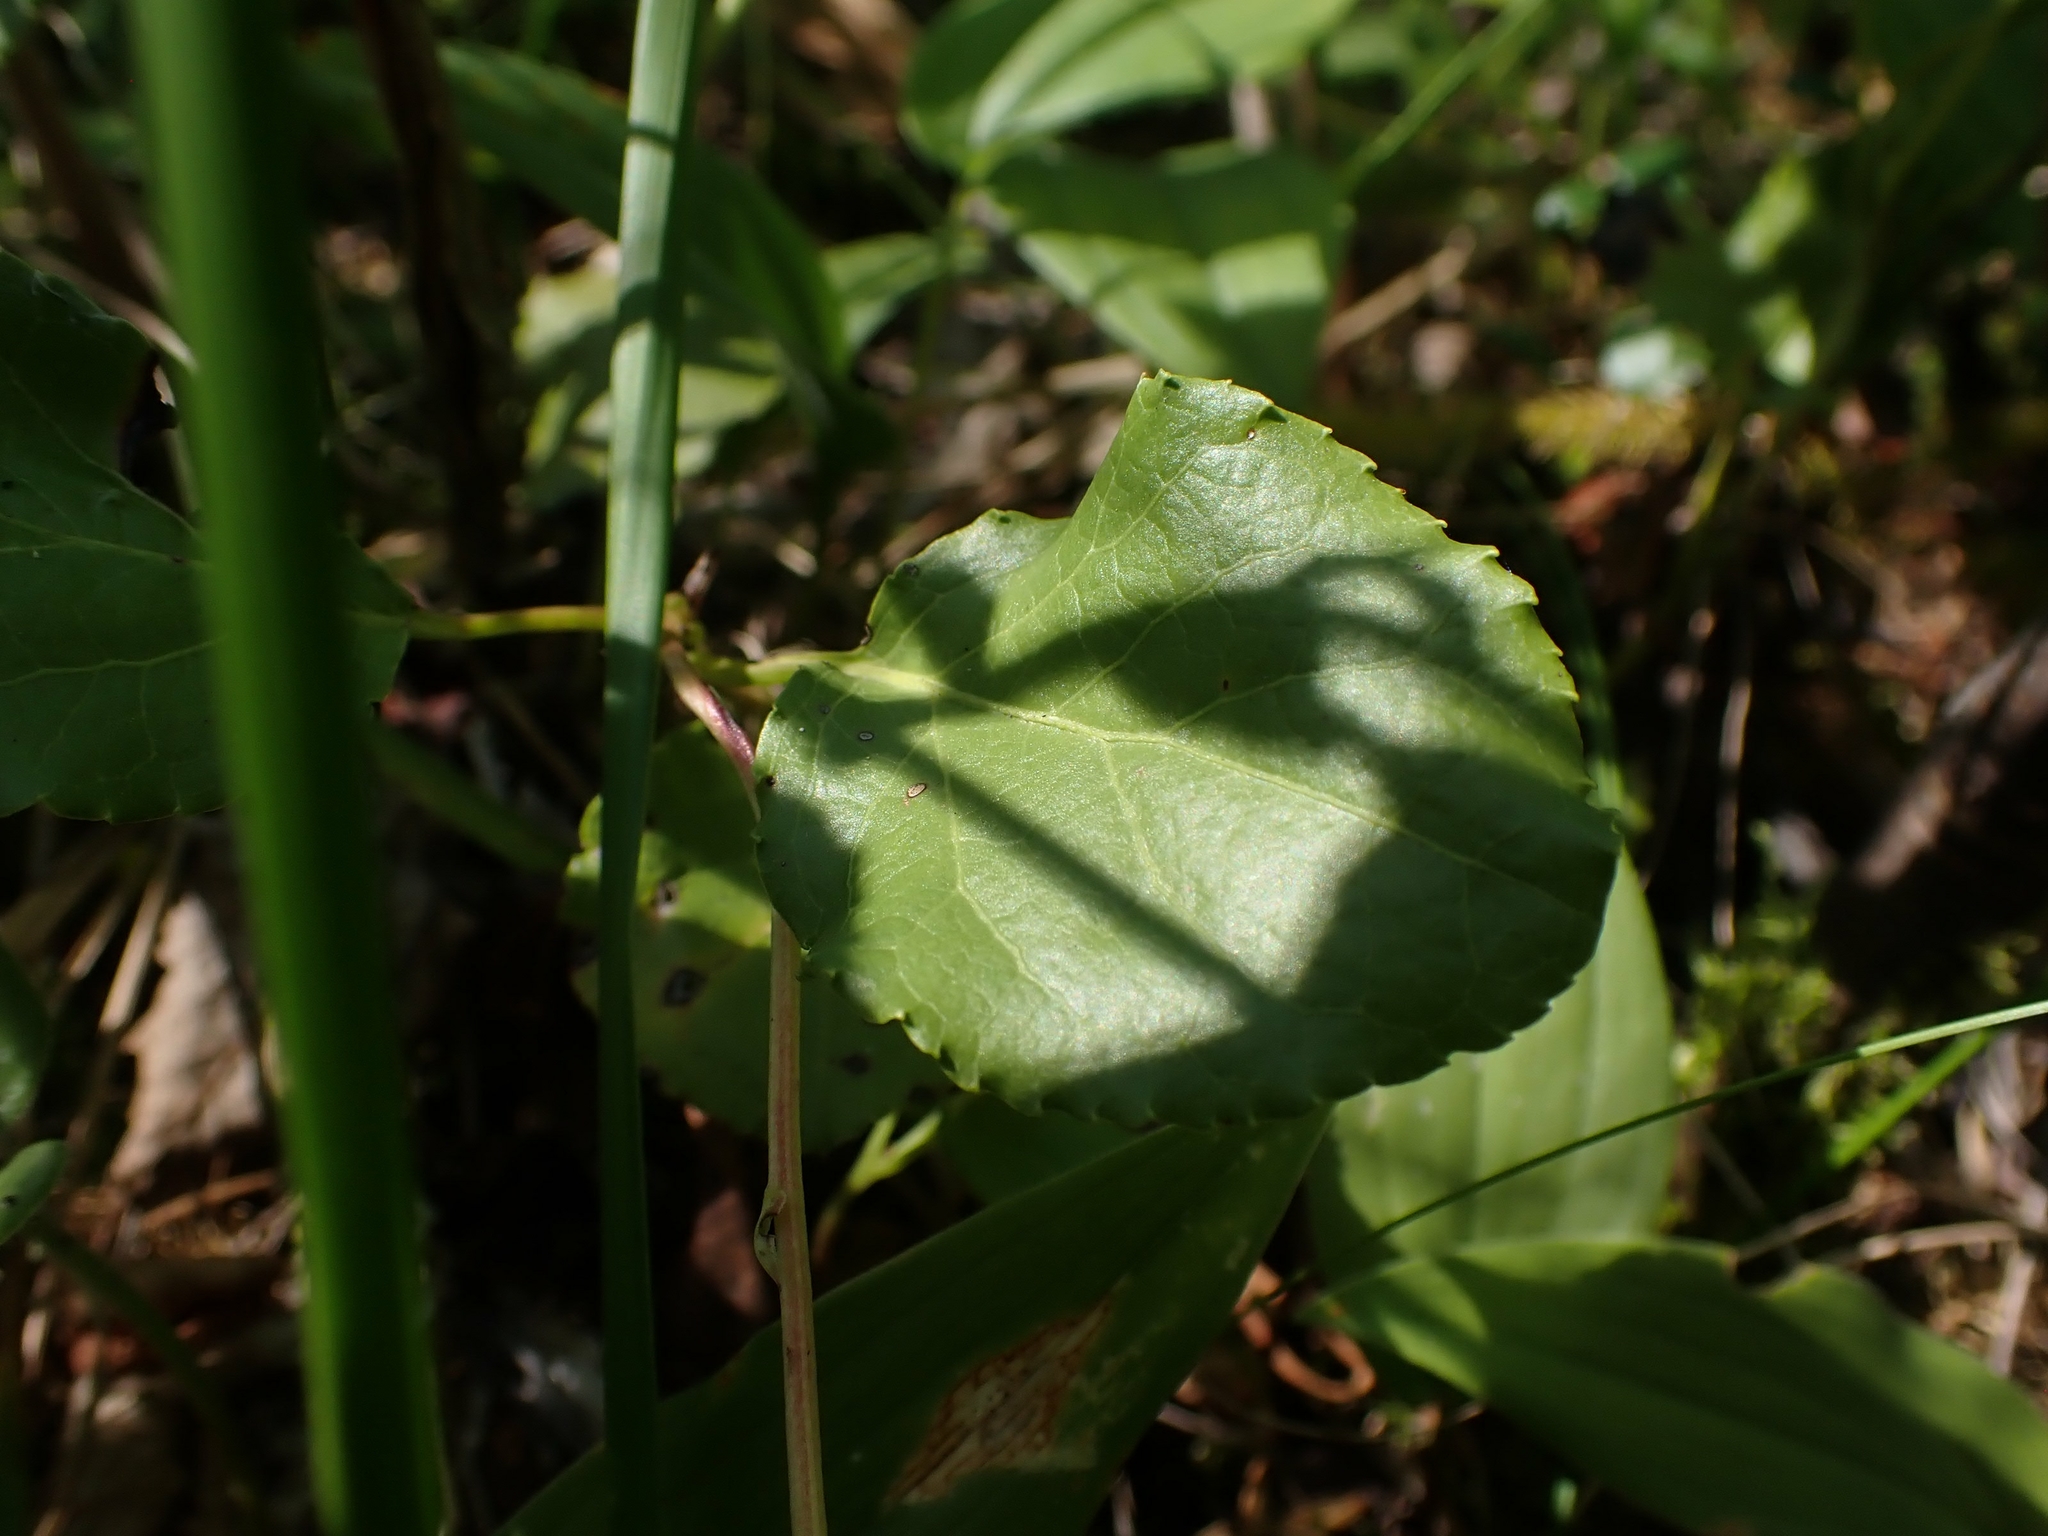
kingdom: Plantae
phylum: Tracheophyta
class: Magnoliopsida
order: Ericales
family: Ericaceae
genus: Orthilia
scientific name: Orthilia secunda
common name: One-sided orthilia
